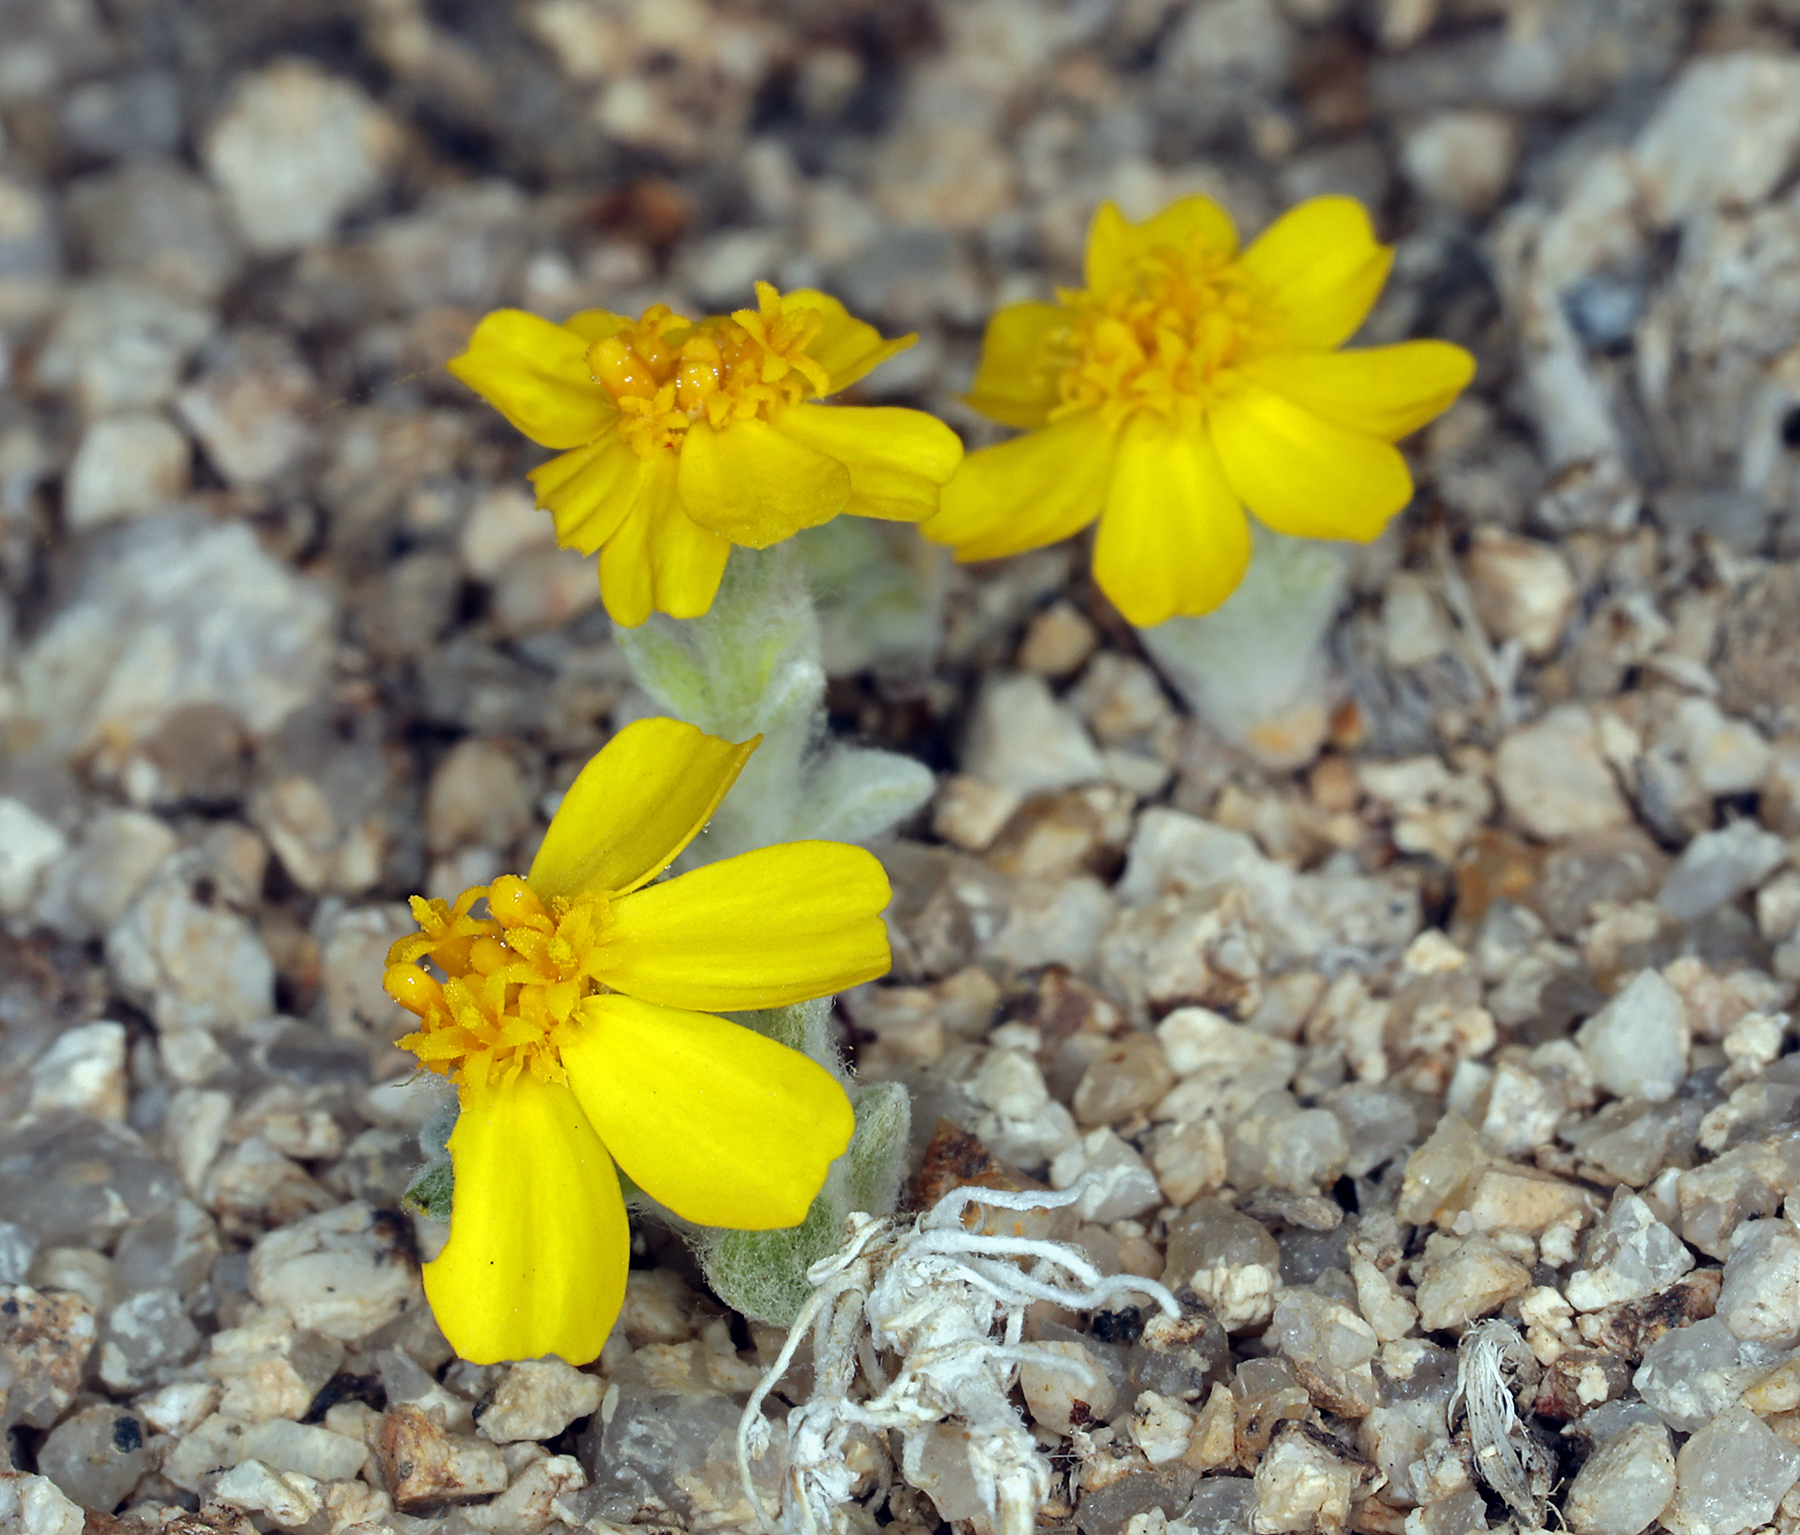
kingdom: Plantae
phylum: Tracheophyta
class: Magnoliopsida
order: Asterales
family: Asteraceae
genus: Eriophyllum
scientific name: Eriophyllum wallacei
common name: Wallace's woolly daisy
